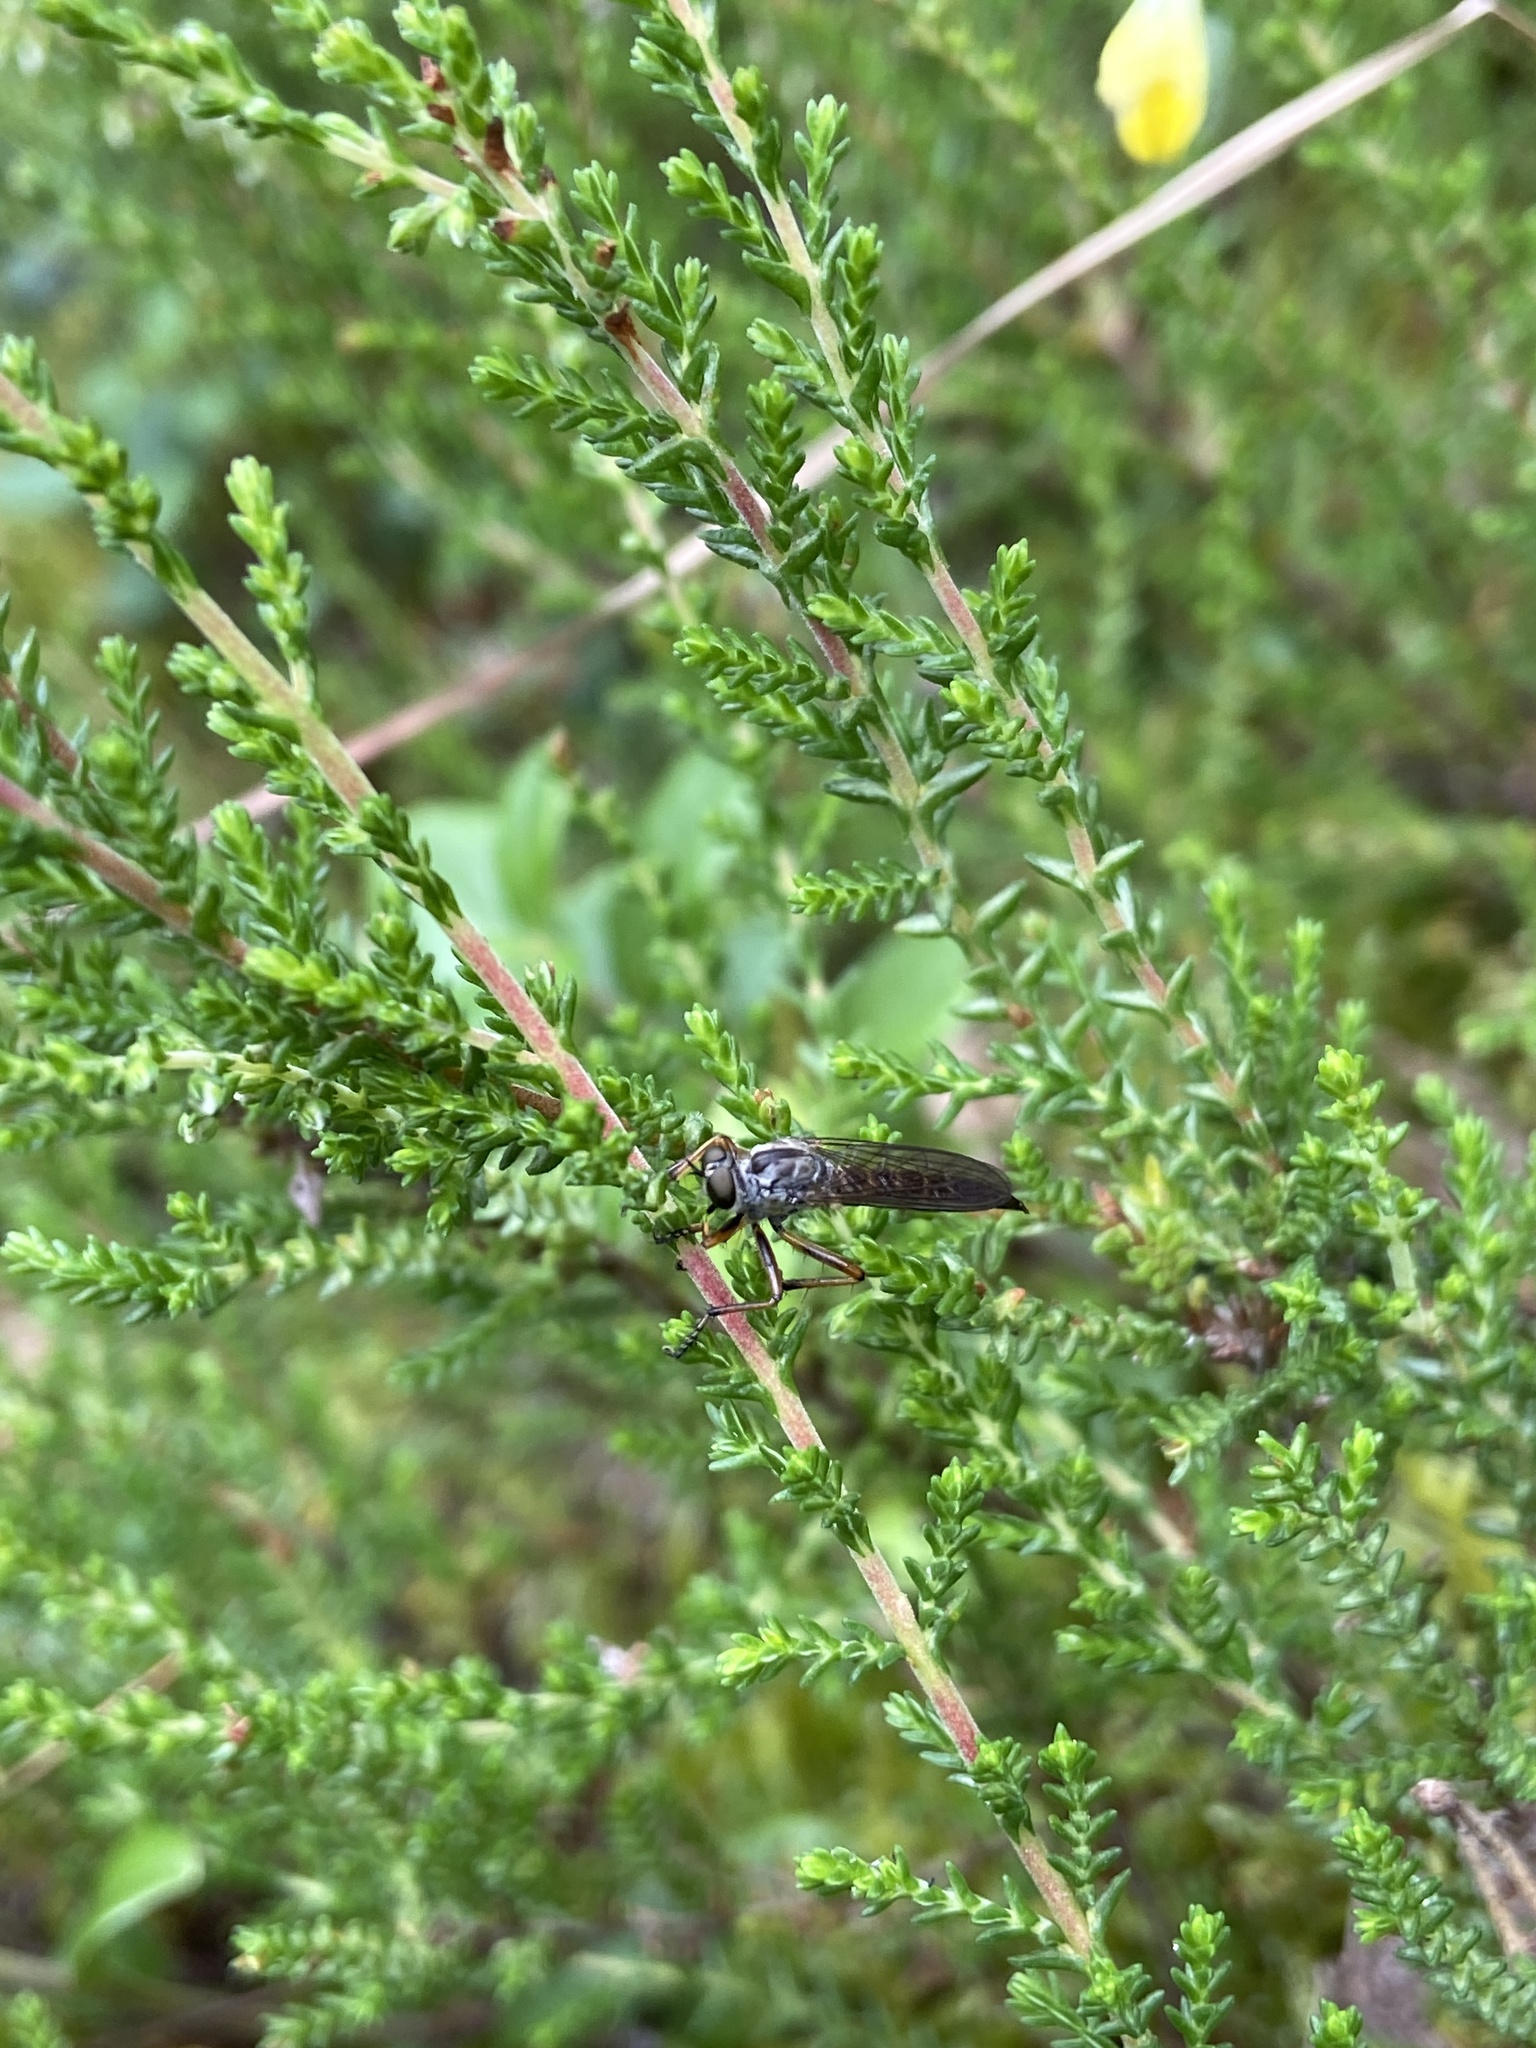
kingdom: Animalia
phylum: Arthropoda
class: Insecta
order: Diptera
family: Asilidae
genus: Neomochtherus
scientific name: Neomochtherus pallipes
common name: Devon red-legged robberfly
